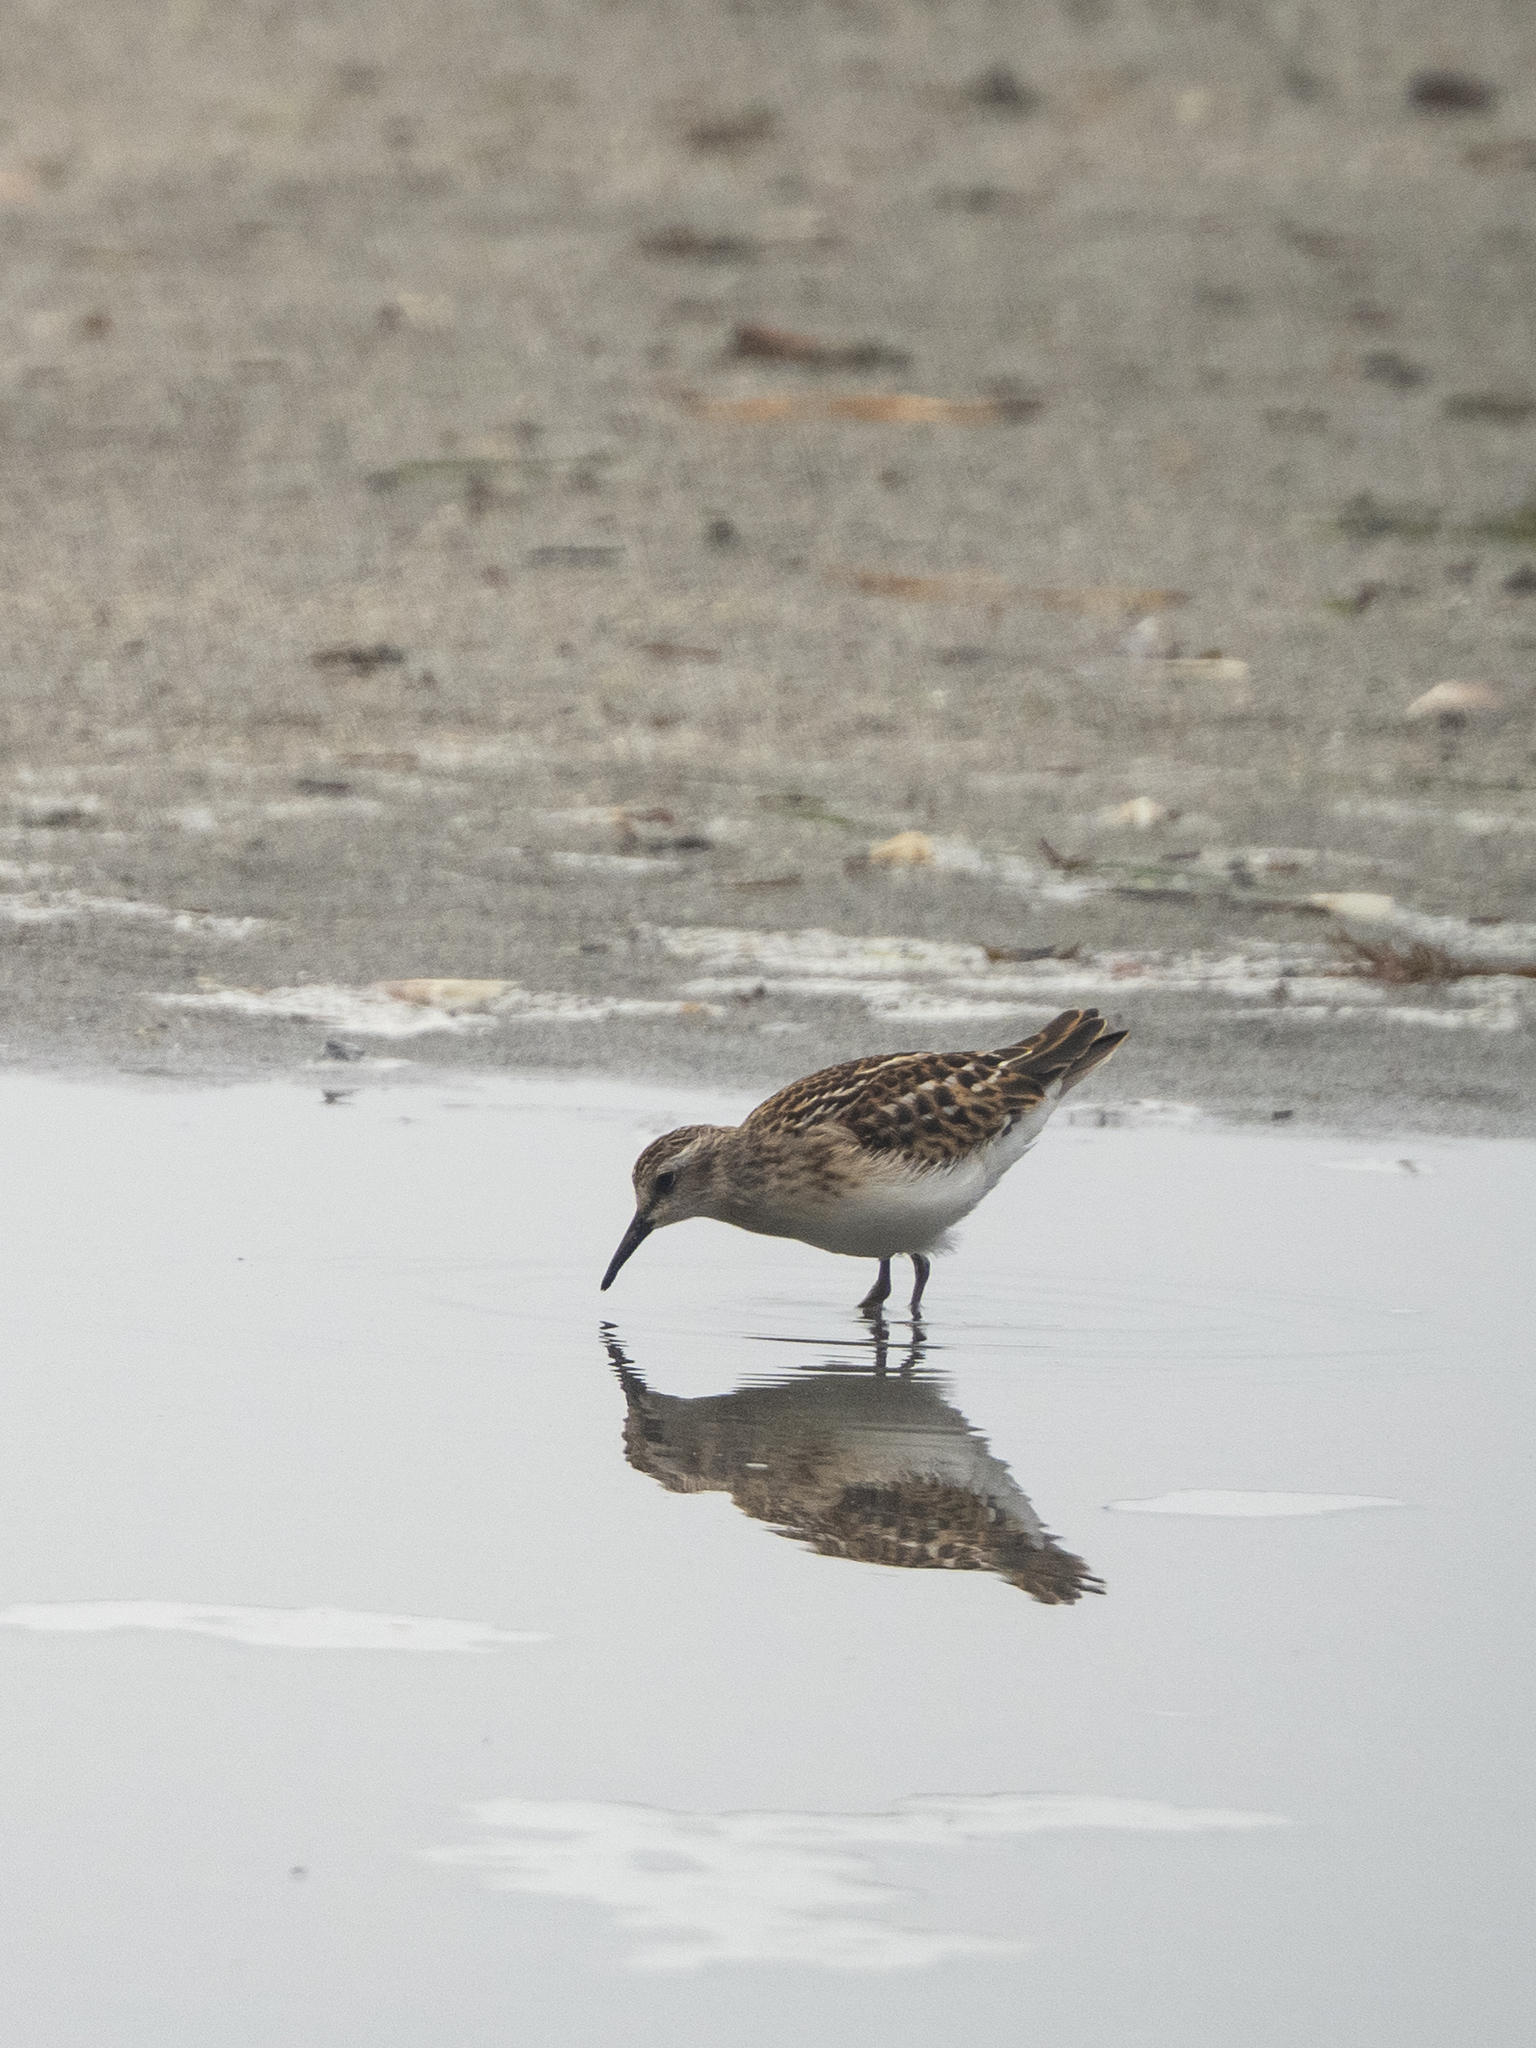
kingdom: Animalia
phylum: Chordata
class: Aves
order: Charadriiformes
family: Scolopacidae
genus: Calidris
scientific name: Calidris minutilla
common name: Least sandpiper
